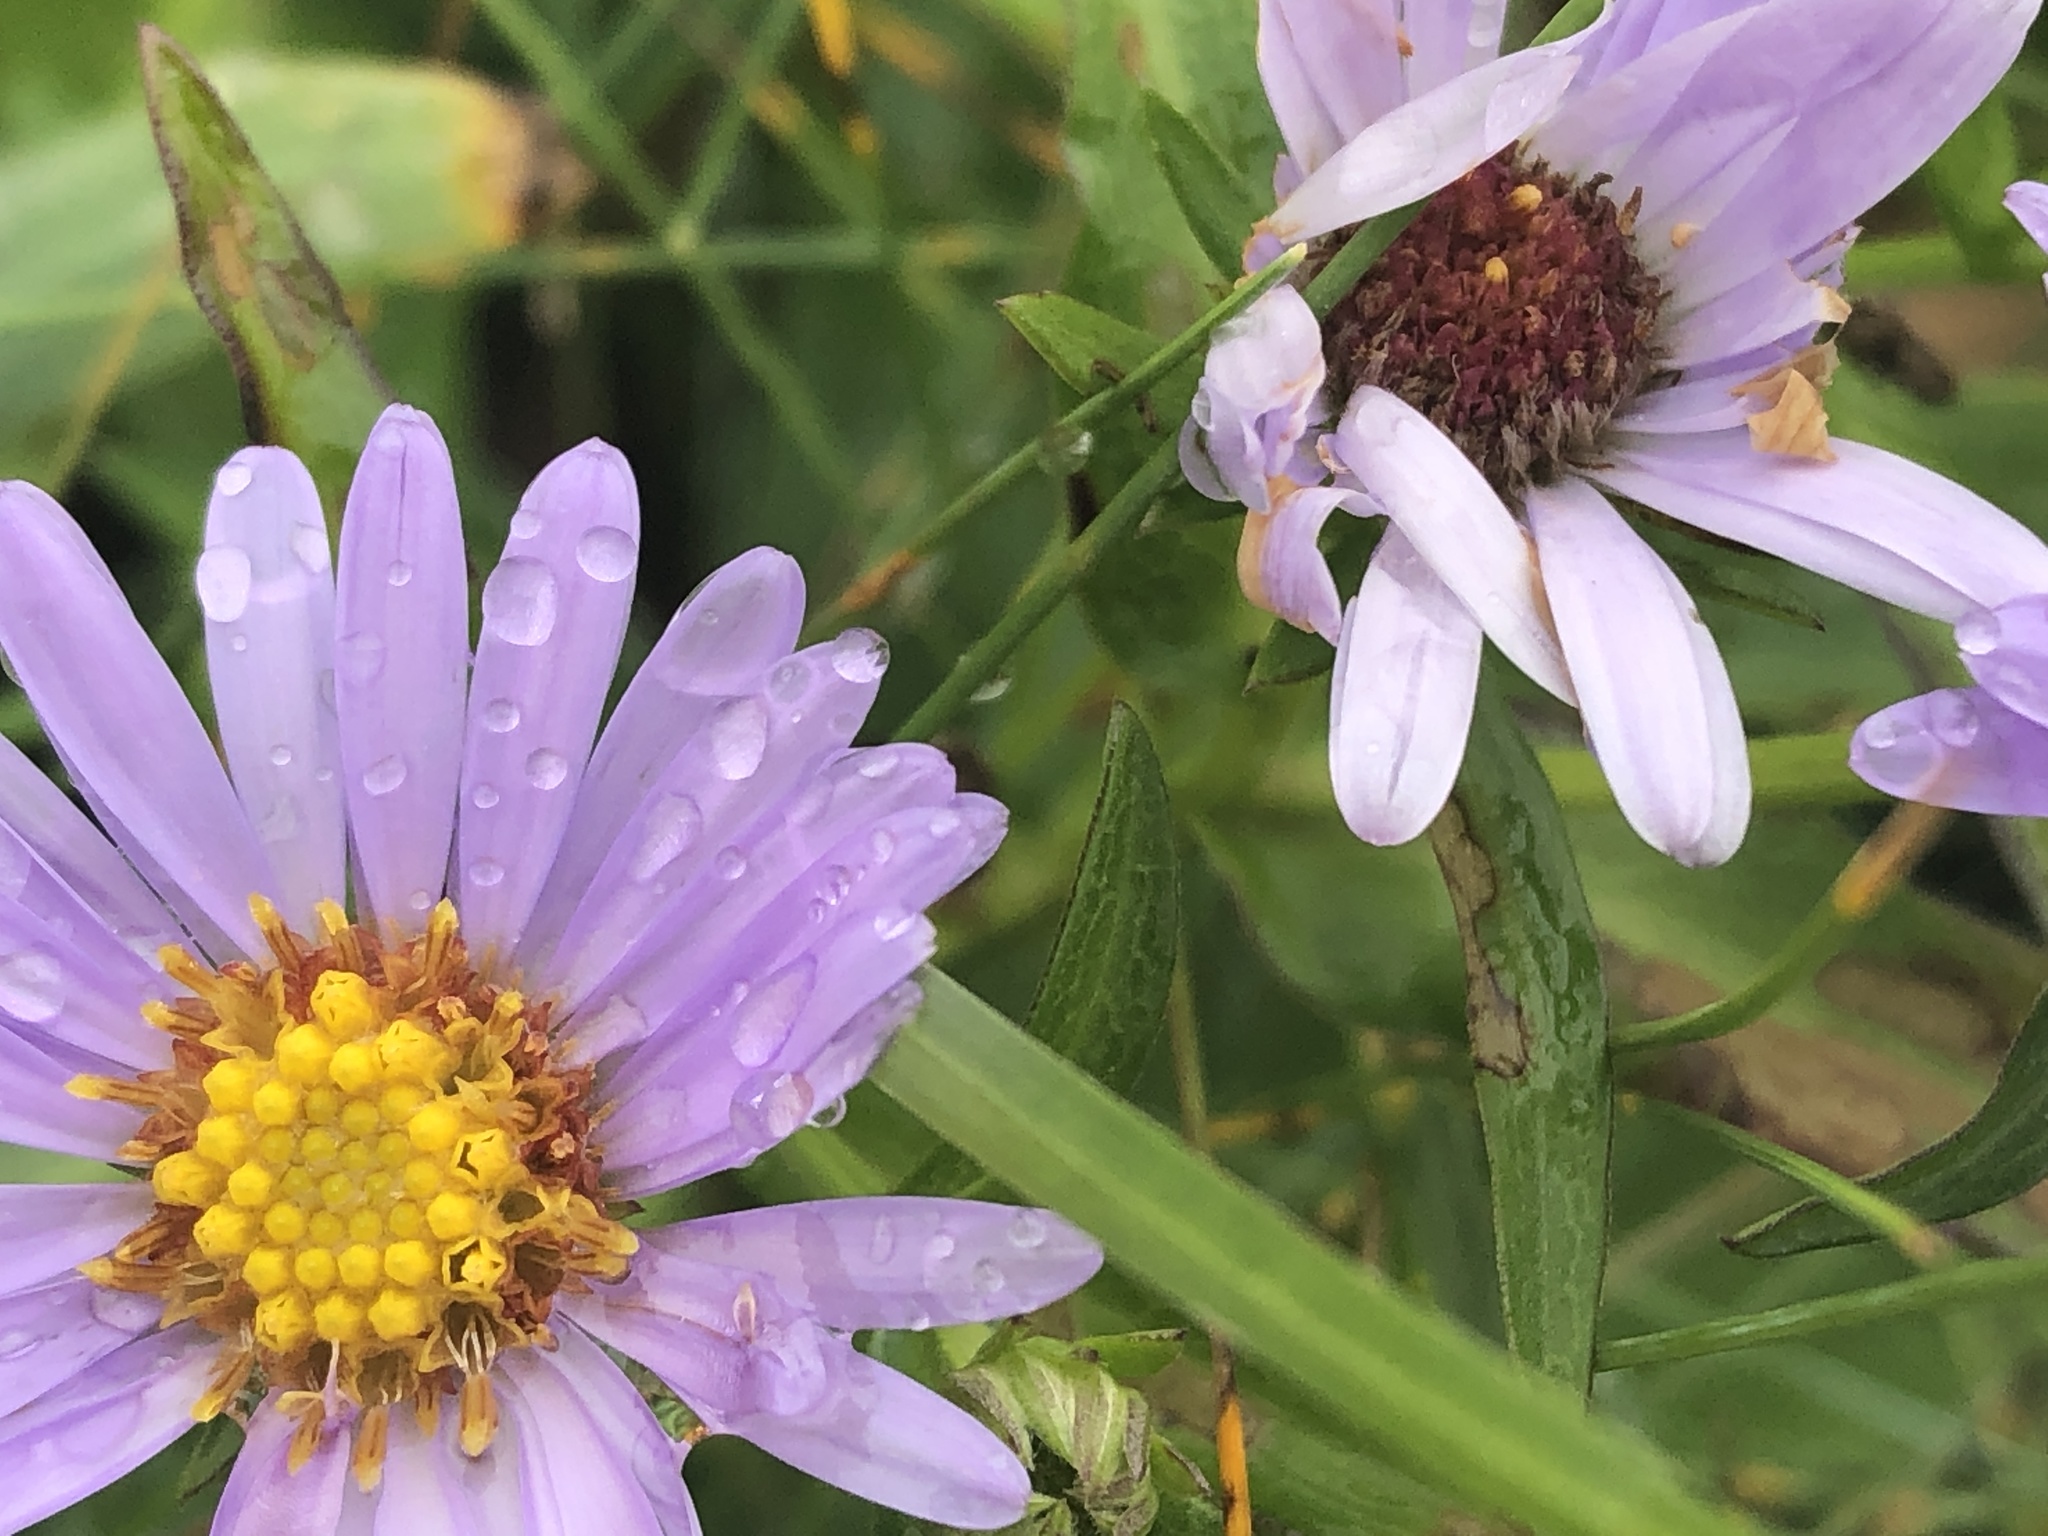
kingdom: Plantae
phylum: Tracheophyta
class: Magnoliopsida
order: Asterales
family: Asteraceae
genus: Symphyotrichum
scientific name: Symphyotrichum novi-belgii
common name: Michaelmas daisy
